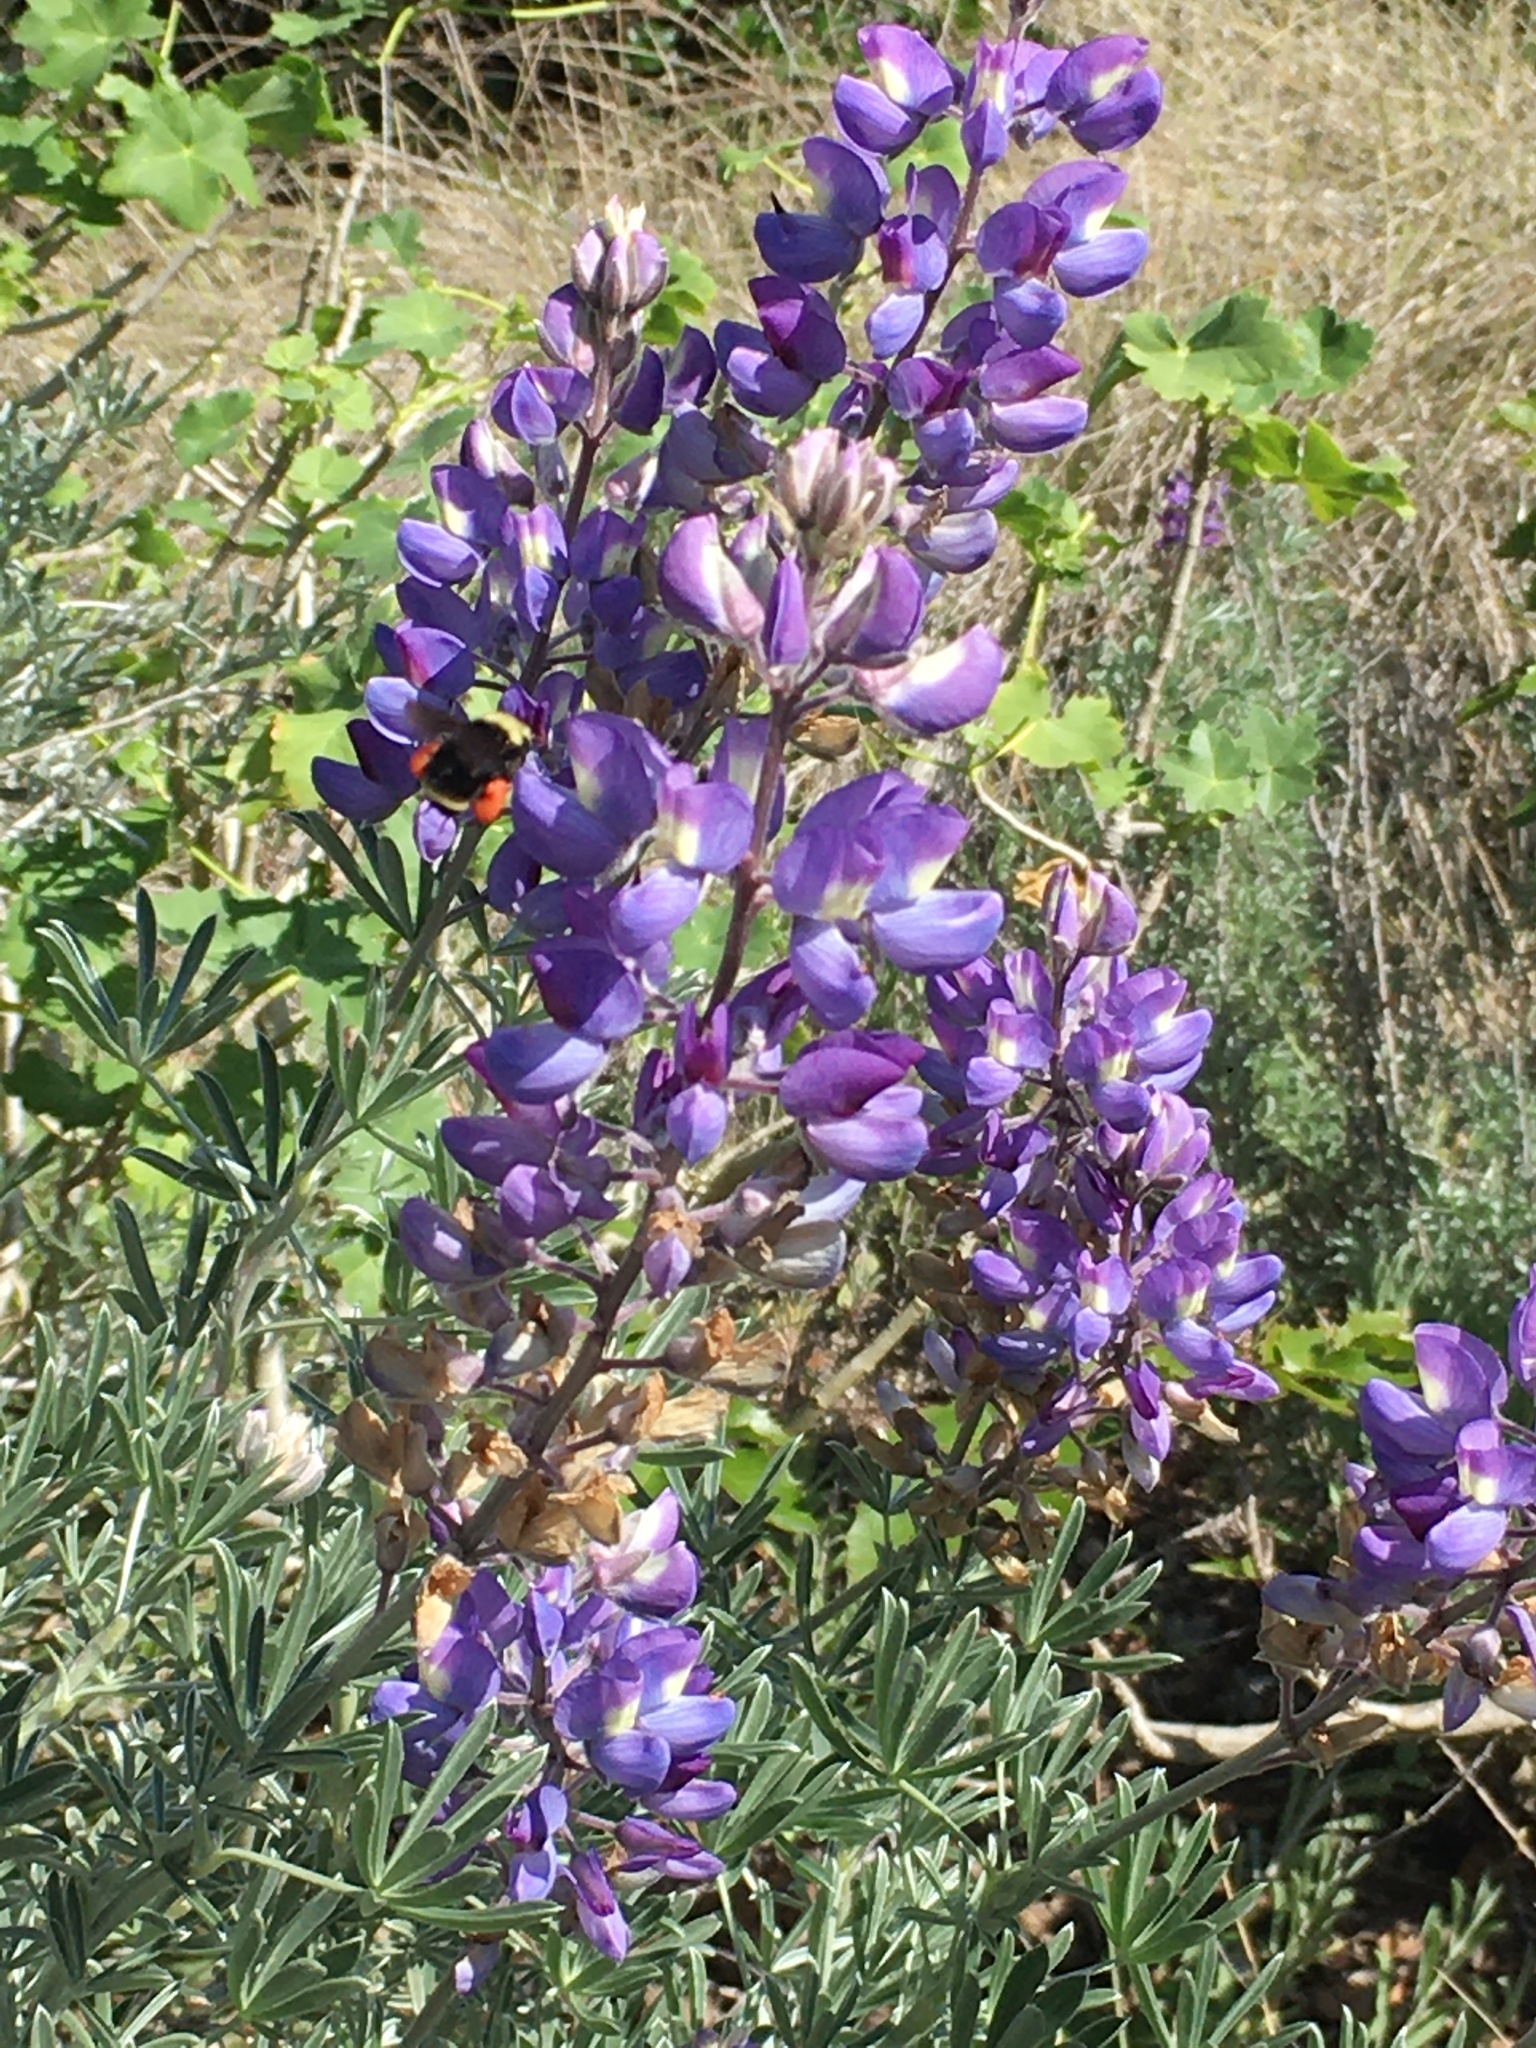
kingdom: Animalia
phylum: Arthropoda
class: Insecta
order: Hymenoptera
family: Apidae
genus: Bombus
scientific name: Bombus vosnesenskii
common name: Vosnesensky bumble bee
